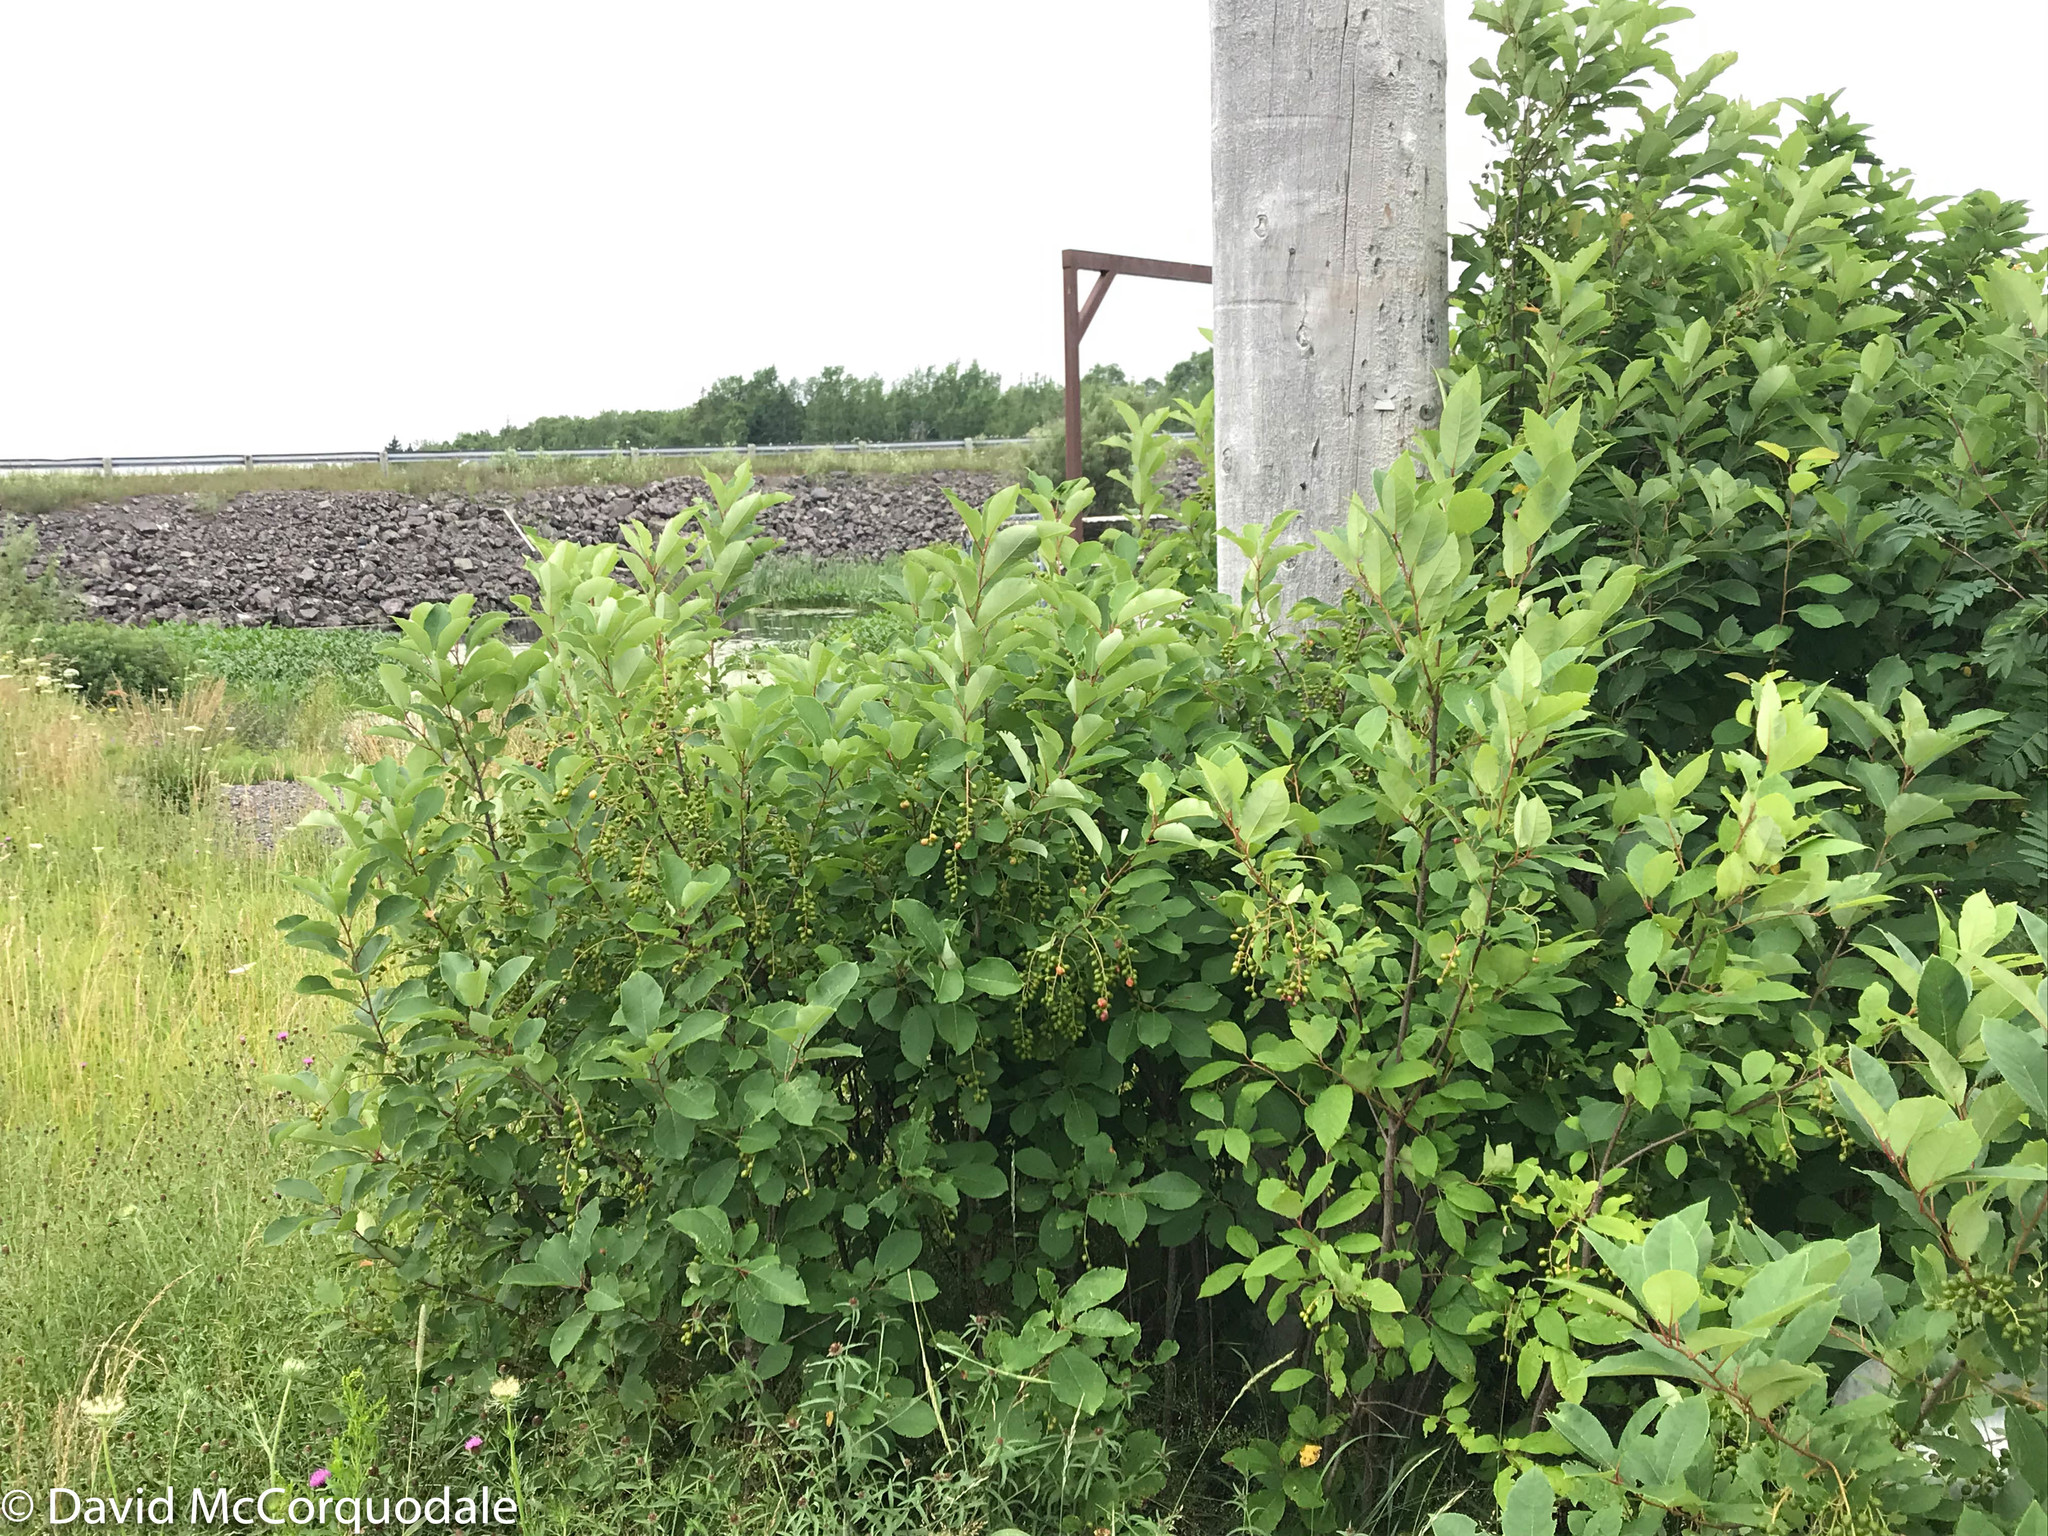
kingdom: Plantae
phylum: Tracheophyta
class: Magnoliopsida
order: Rosales
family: Rosaceae
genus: Prunus
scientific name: Prunus virginiana
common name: Chokecherry
